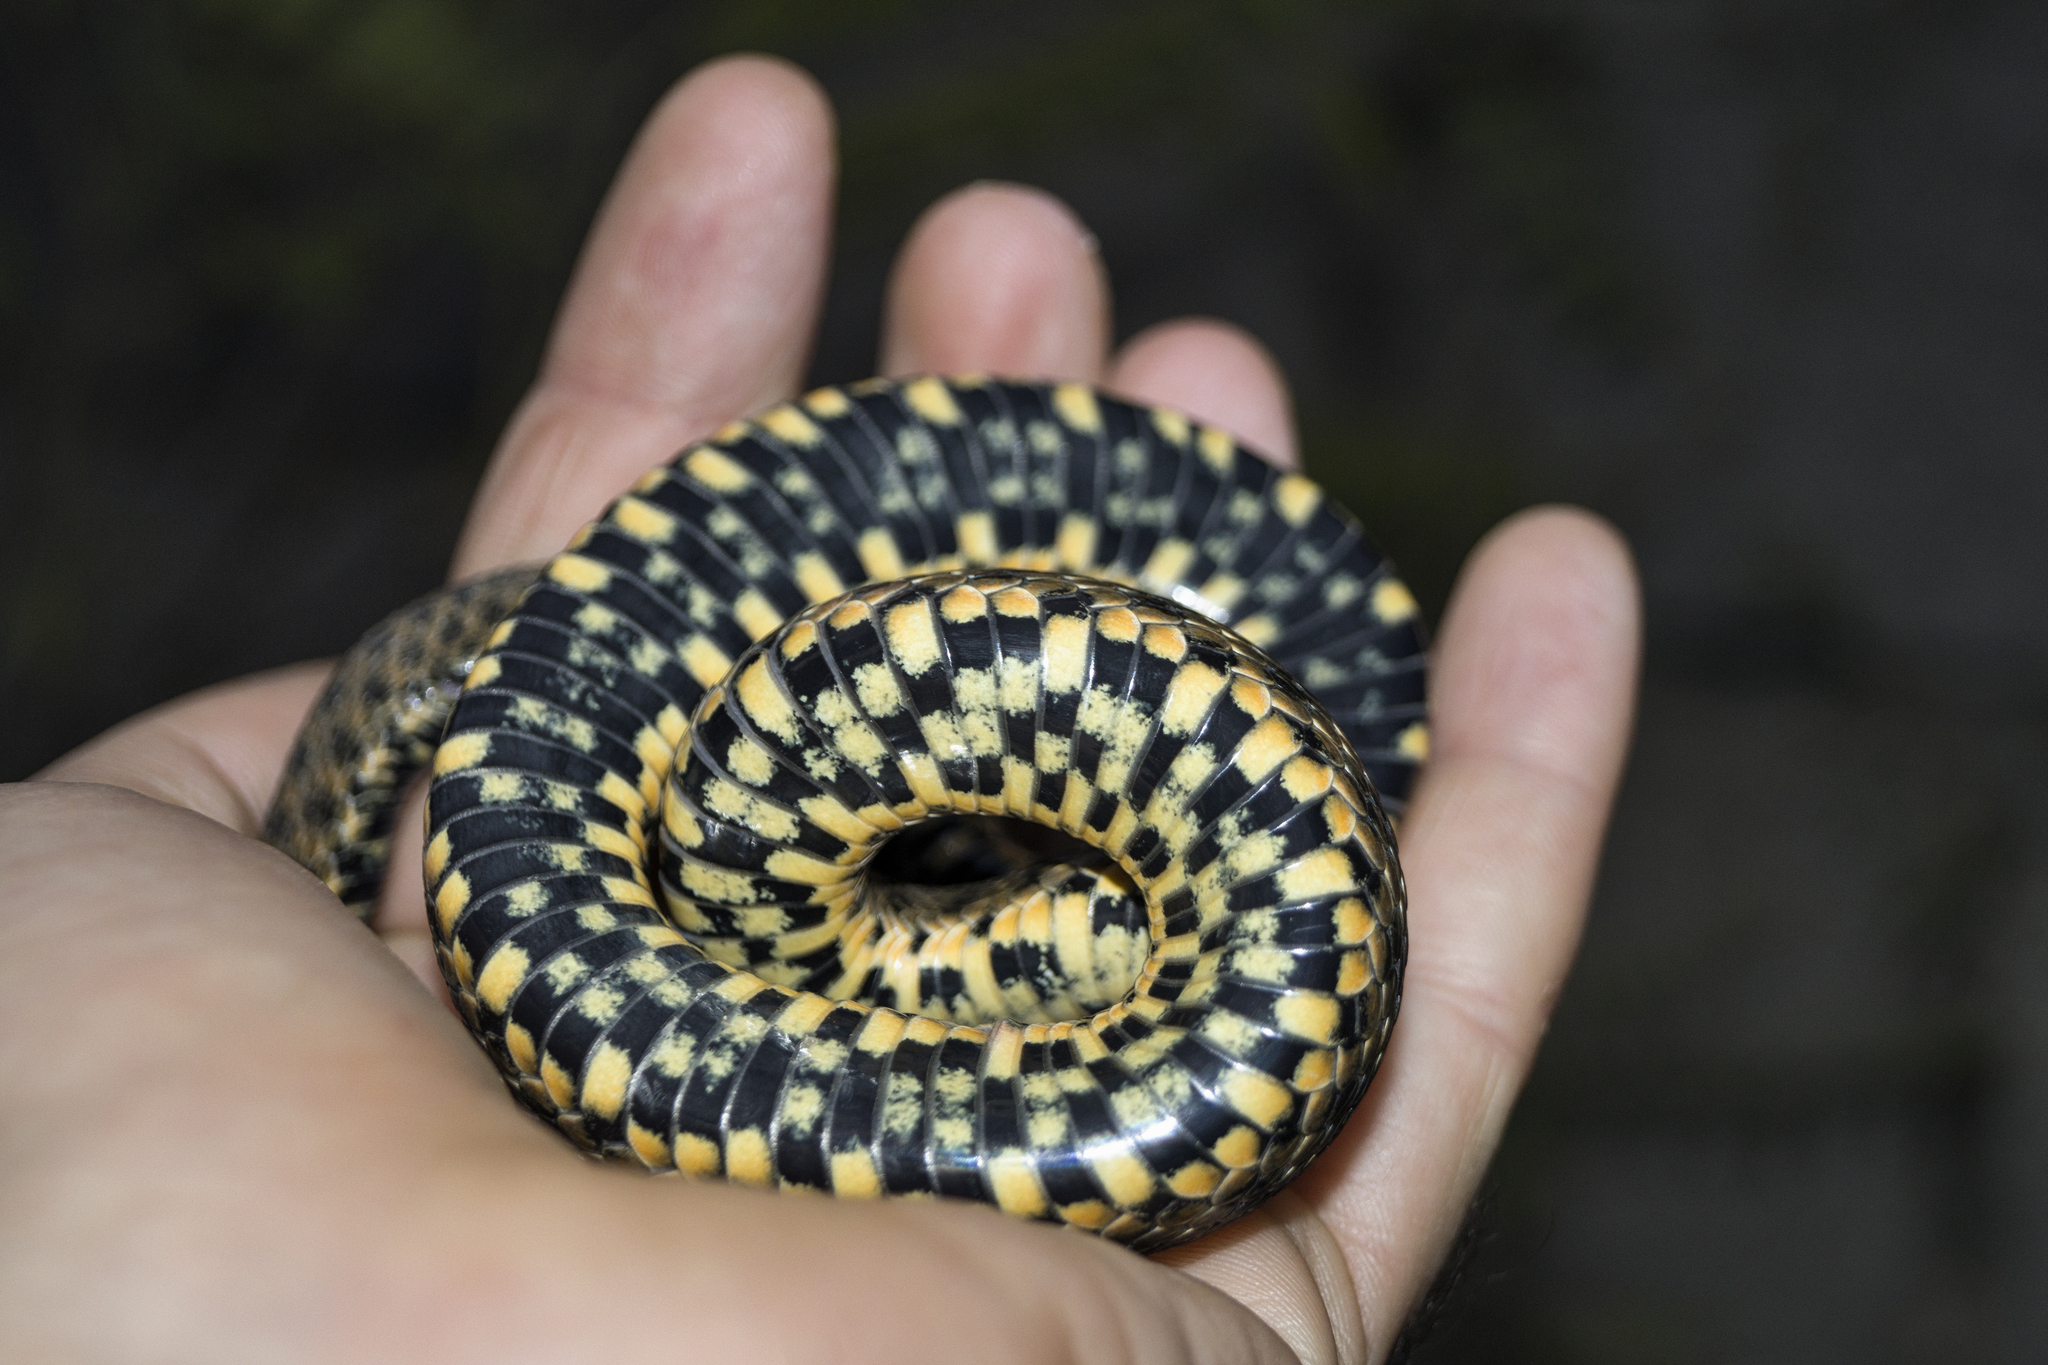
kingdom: Animalia
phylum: Chordata
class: Squamata
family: Colubridae
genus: Natrix
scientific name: Natrix tessellata
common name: Dice snake
